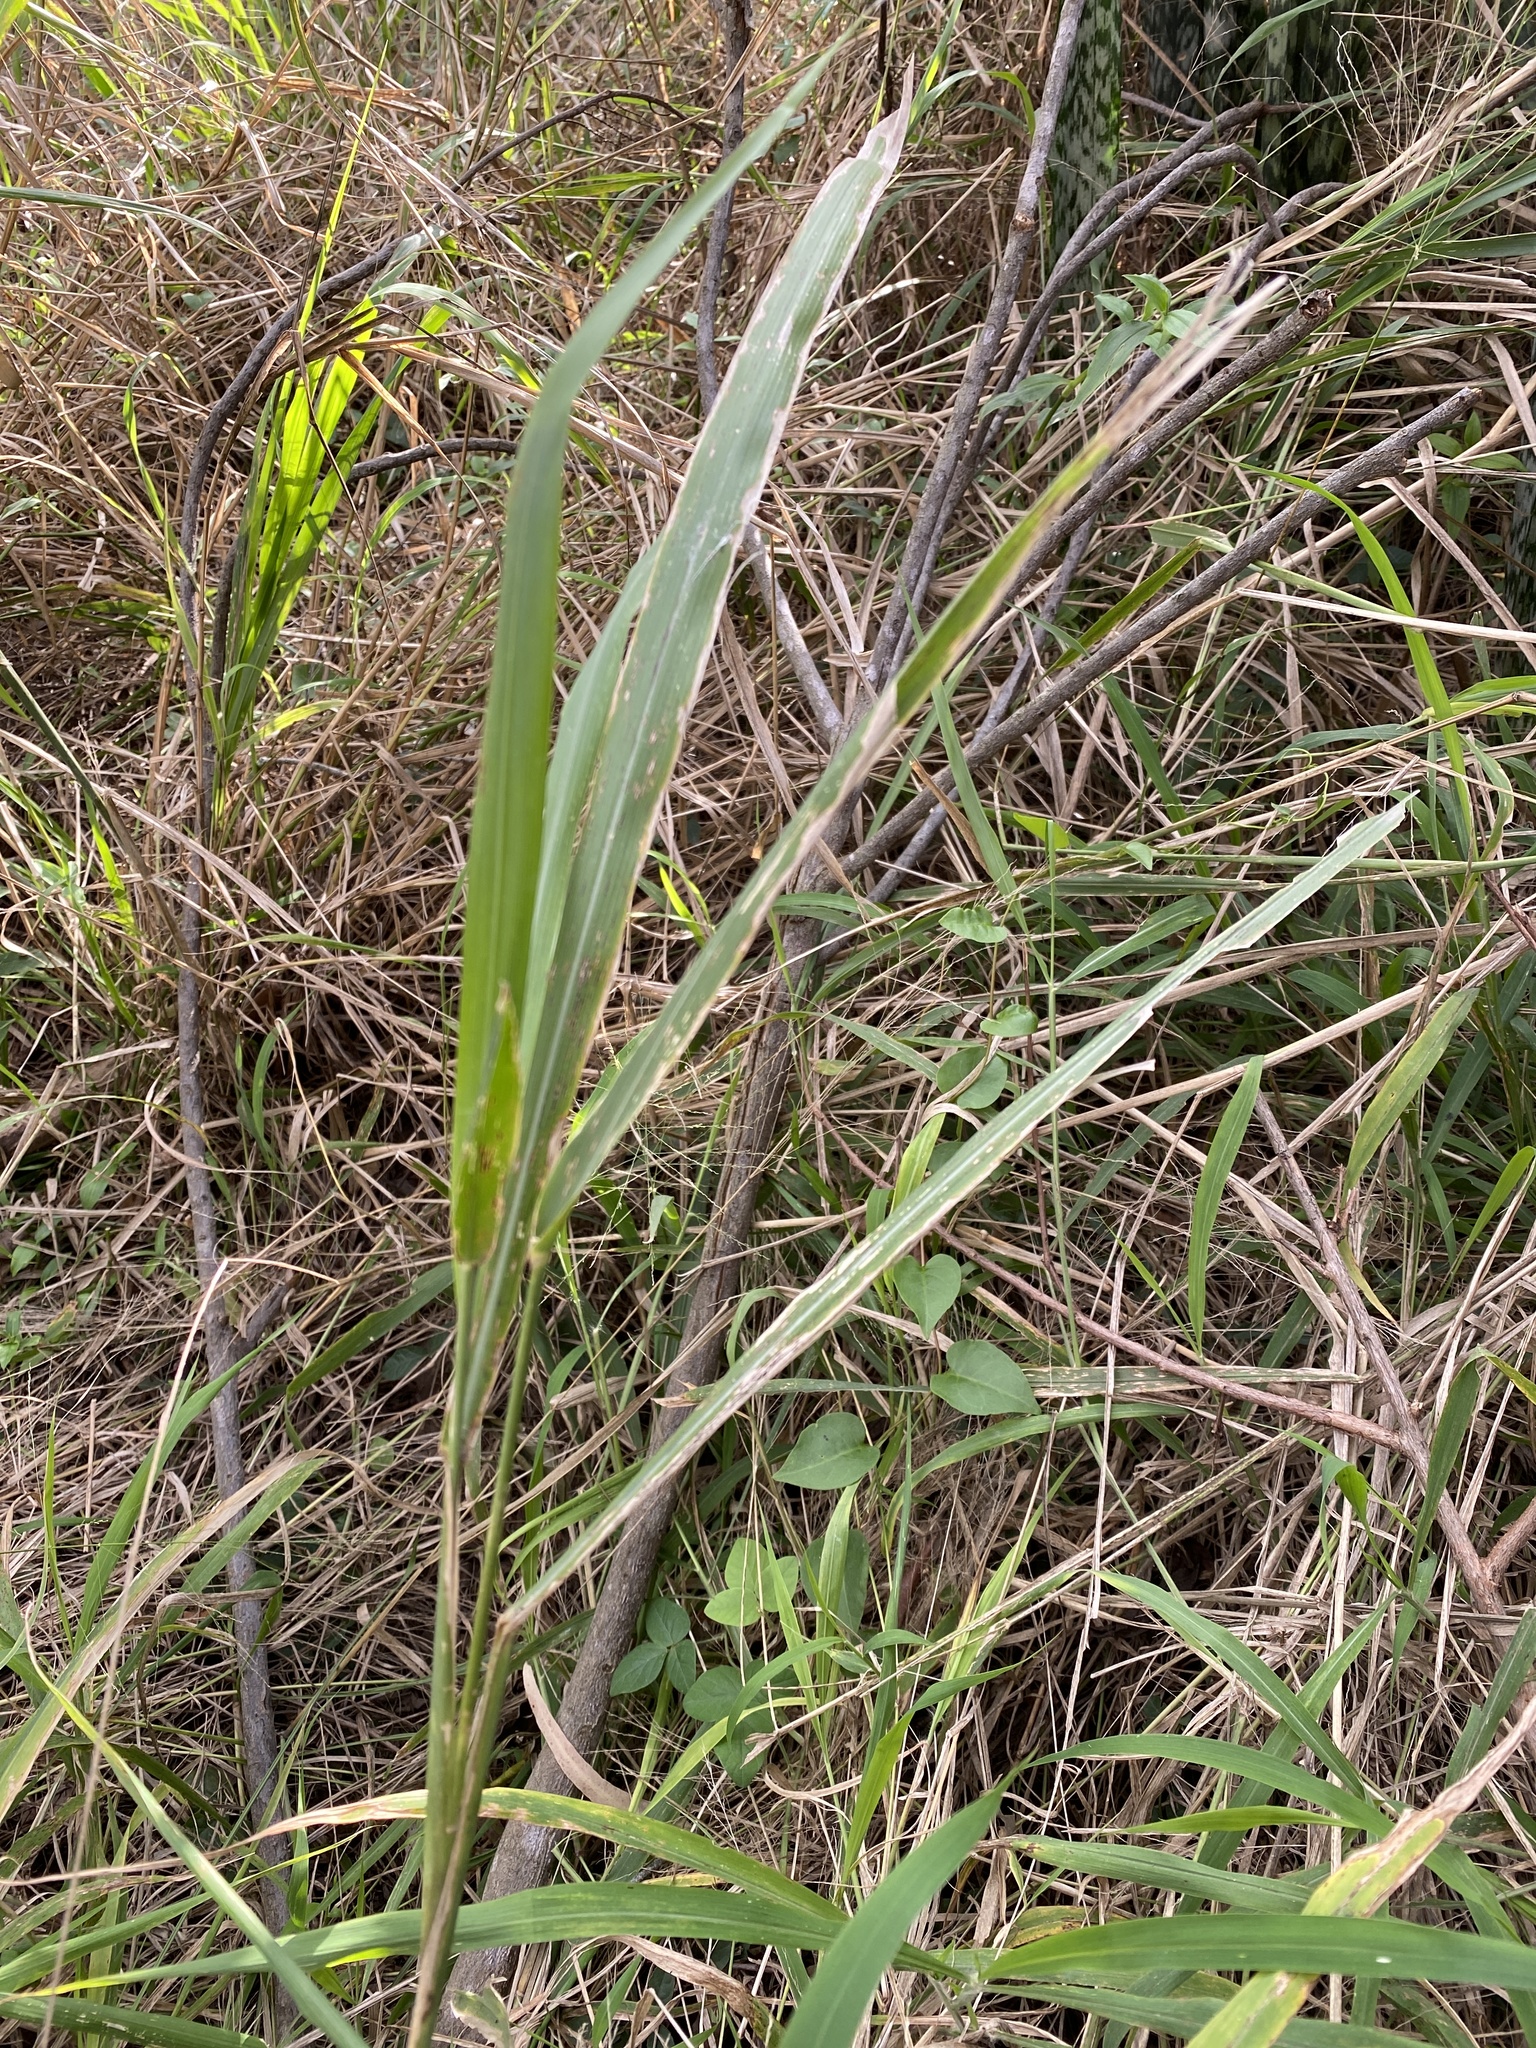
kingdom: Plantae
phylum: Tracheophyta
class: Liliopsida
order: Poales
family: Poaceae
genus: Megathyrsus
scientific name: Megathyrsus maximus
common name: Guineagrass
